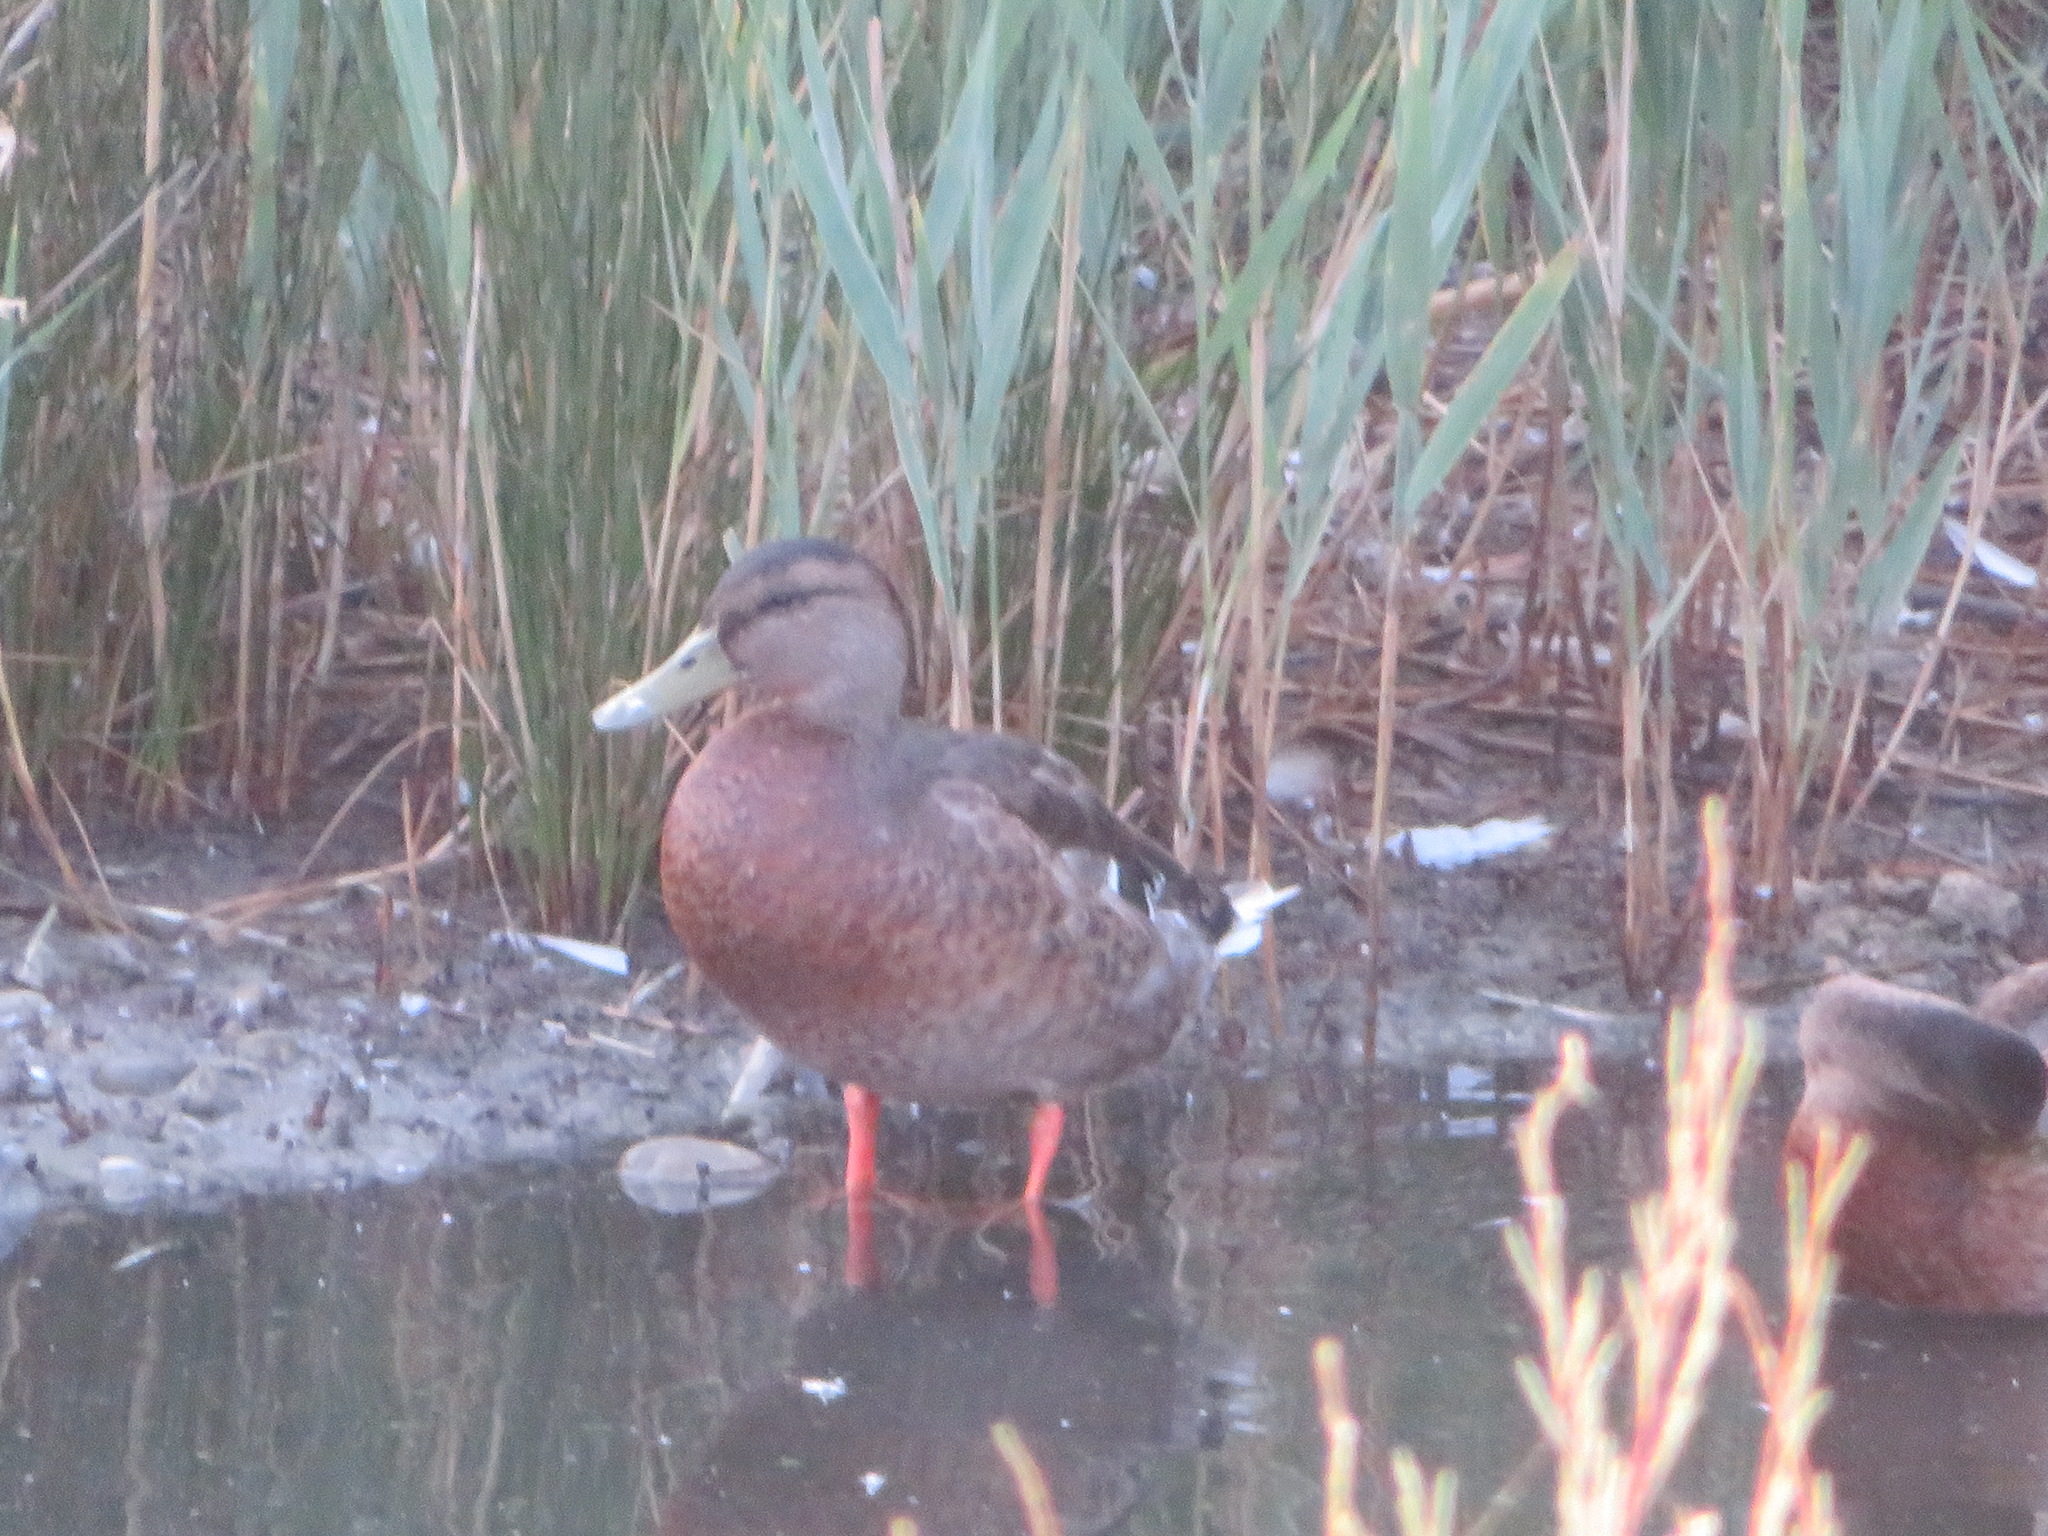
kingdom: Animalia
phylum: Chordata
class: Aves
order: Anseriformes
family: Anatidae
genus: Anas
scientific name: Anas platyrhynchos
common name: Mallard
